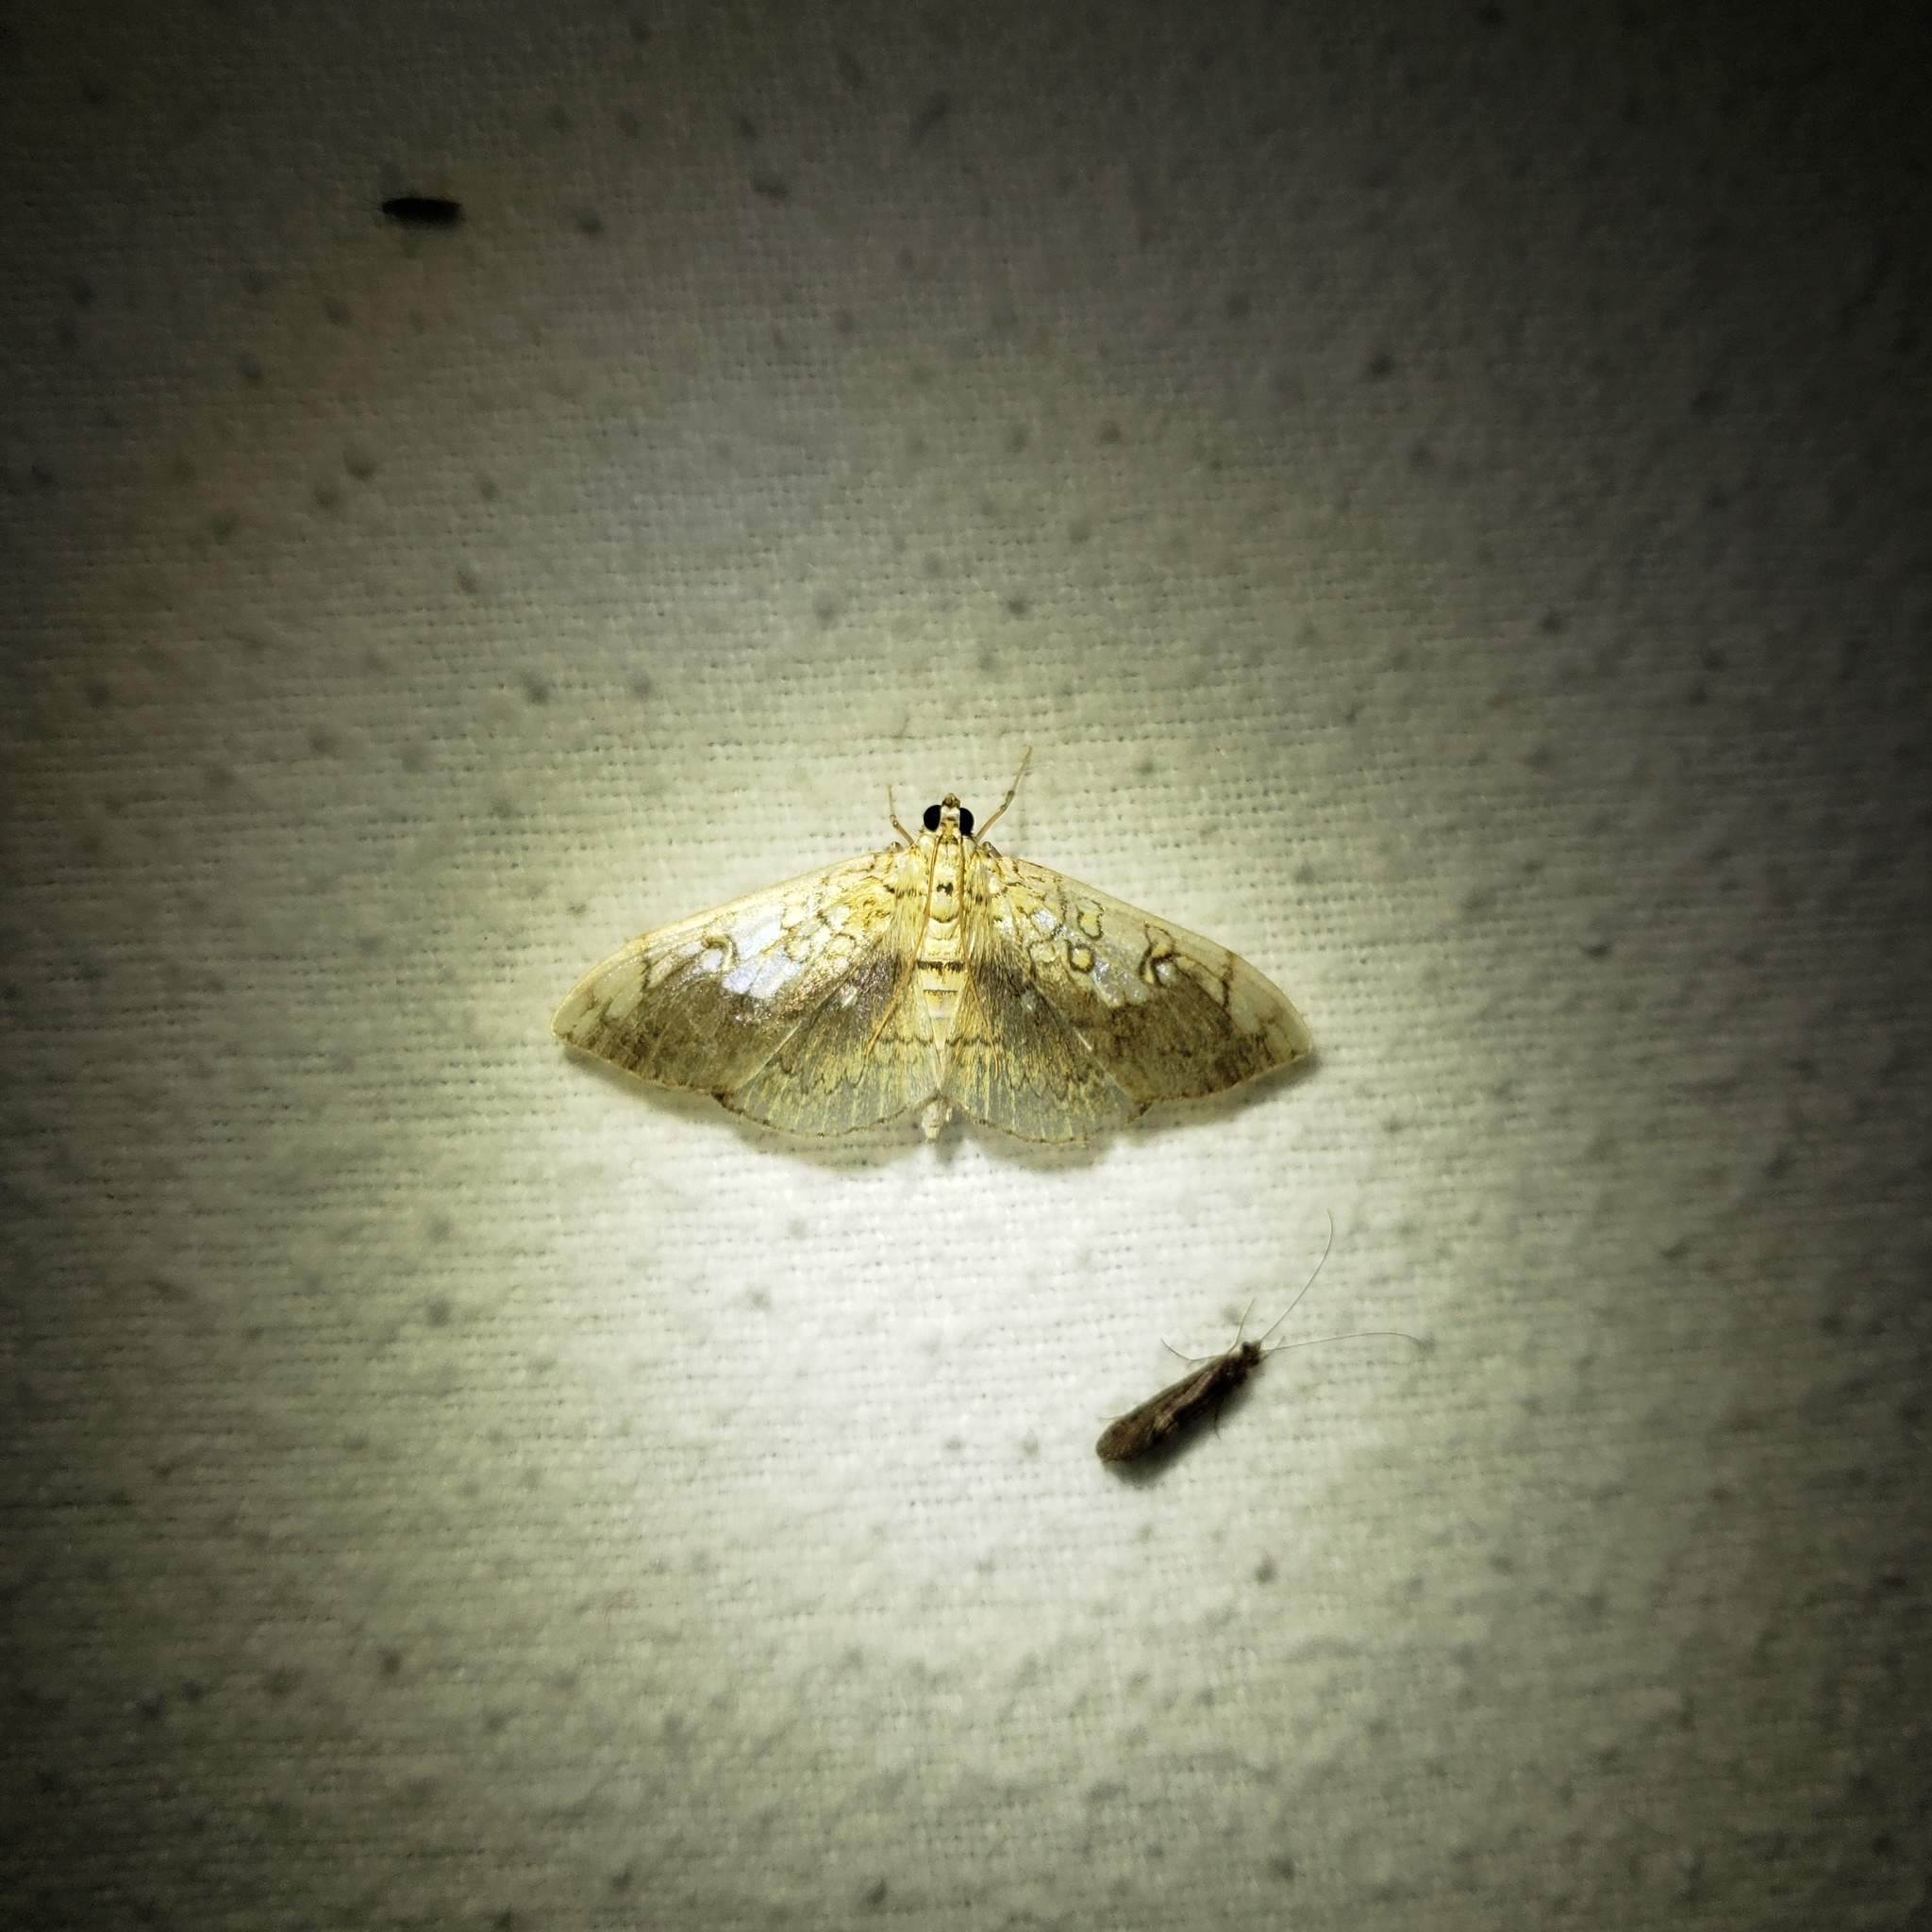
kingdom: Animalia
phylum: Arthropoda
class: Insecta
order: Lepidoptera
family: Crambidae
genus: Pantographa
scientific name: Pantographa limata
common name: Basswood leafroller moth
